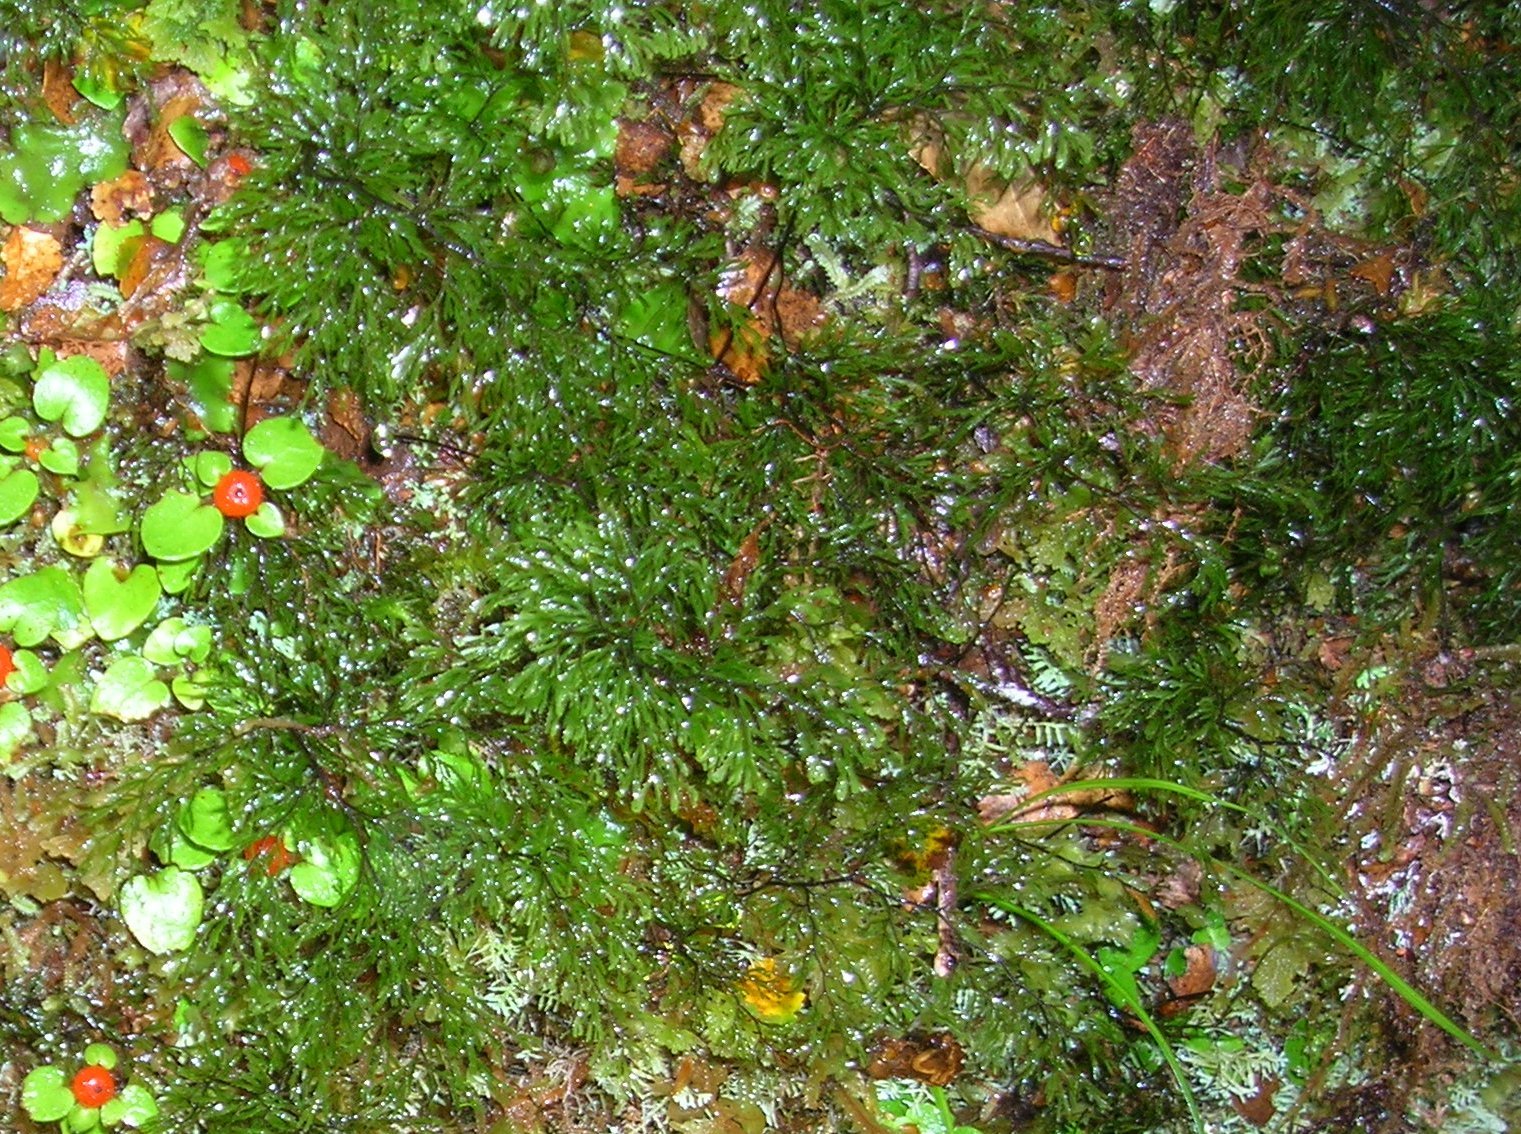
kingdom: Plantae
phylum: Tracheophyta
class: Polypodiopsida
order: Hymenophyllales
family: Hymenophyllaceae
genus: Hymenophyllum
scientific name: Hymenophyllum multifidum
